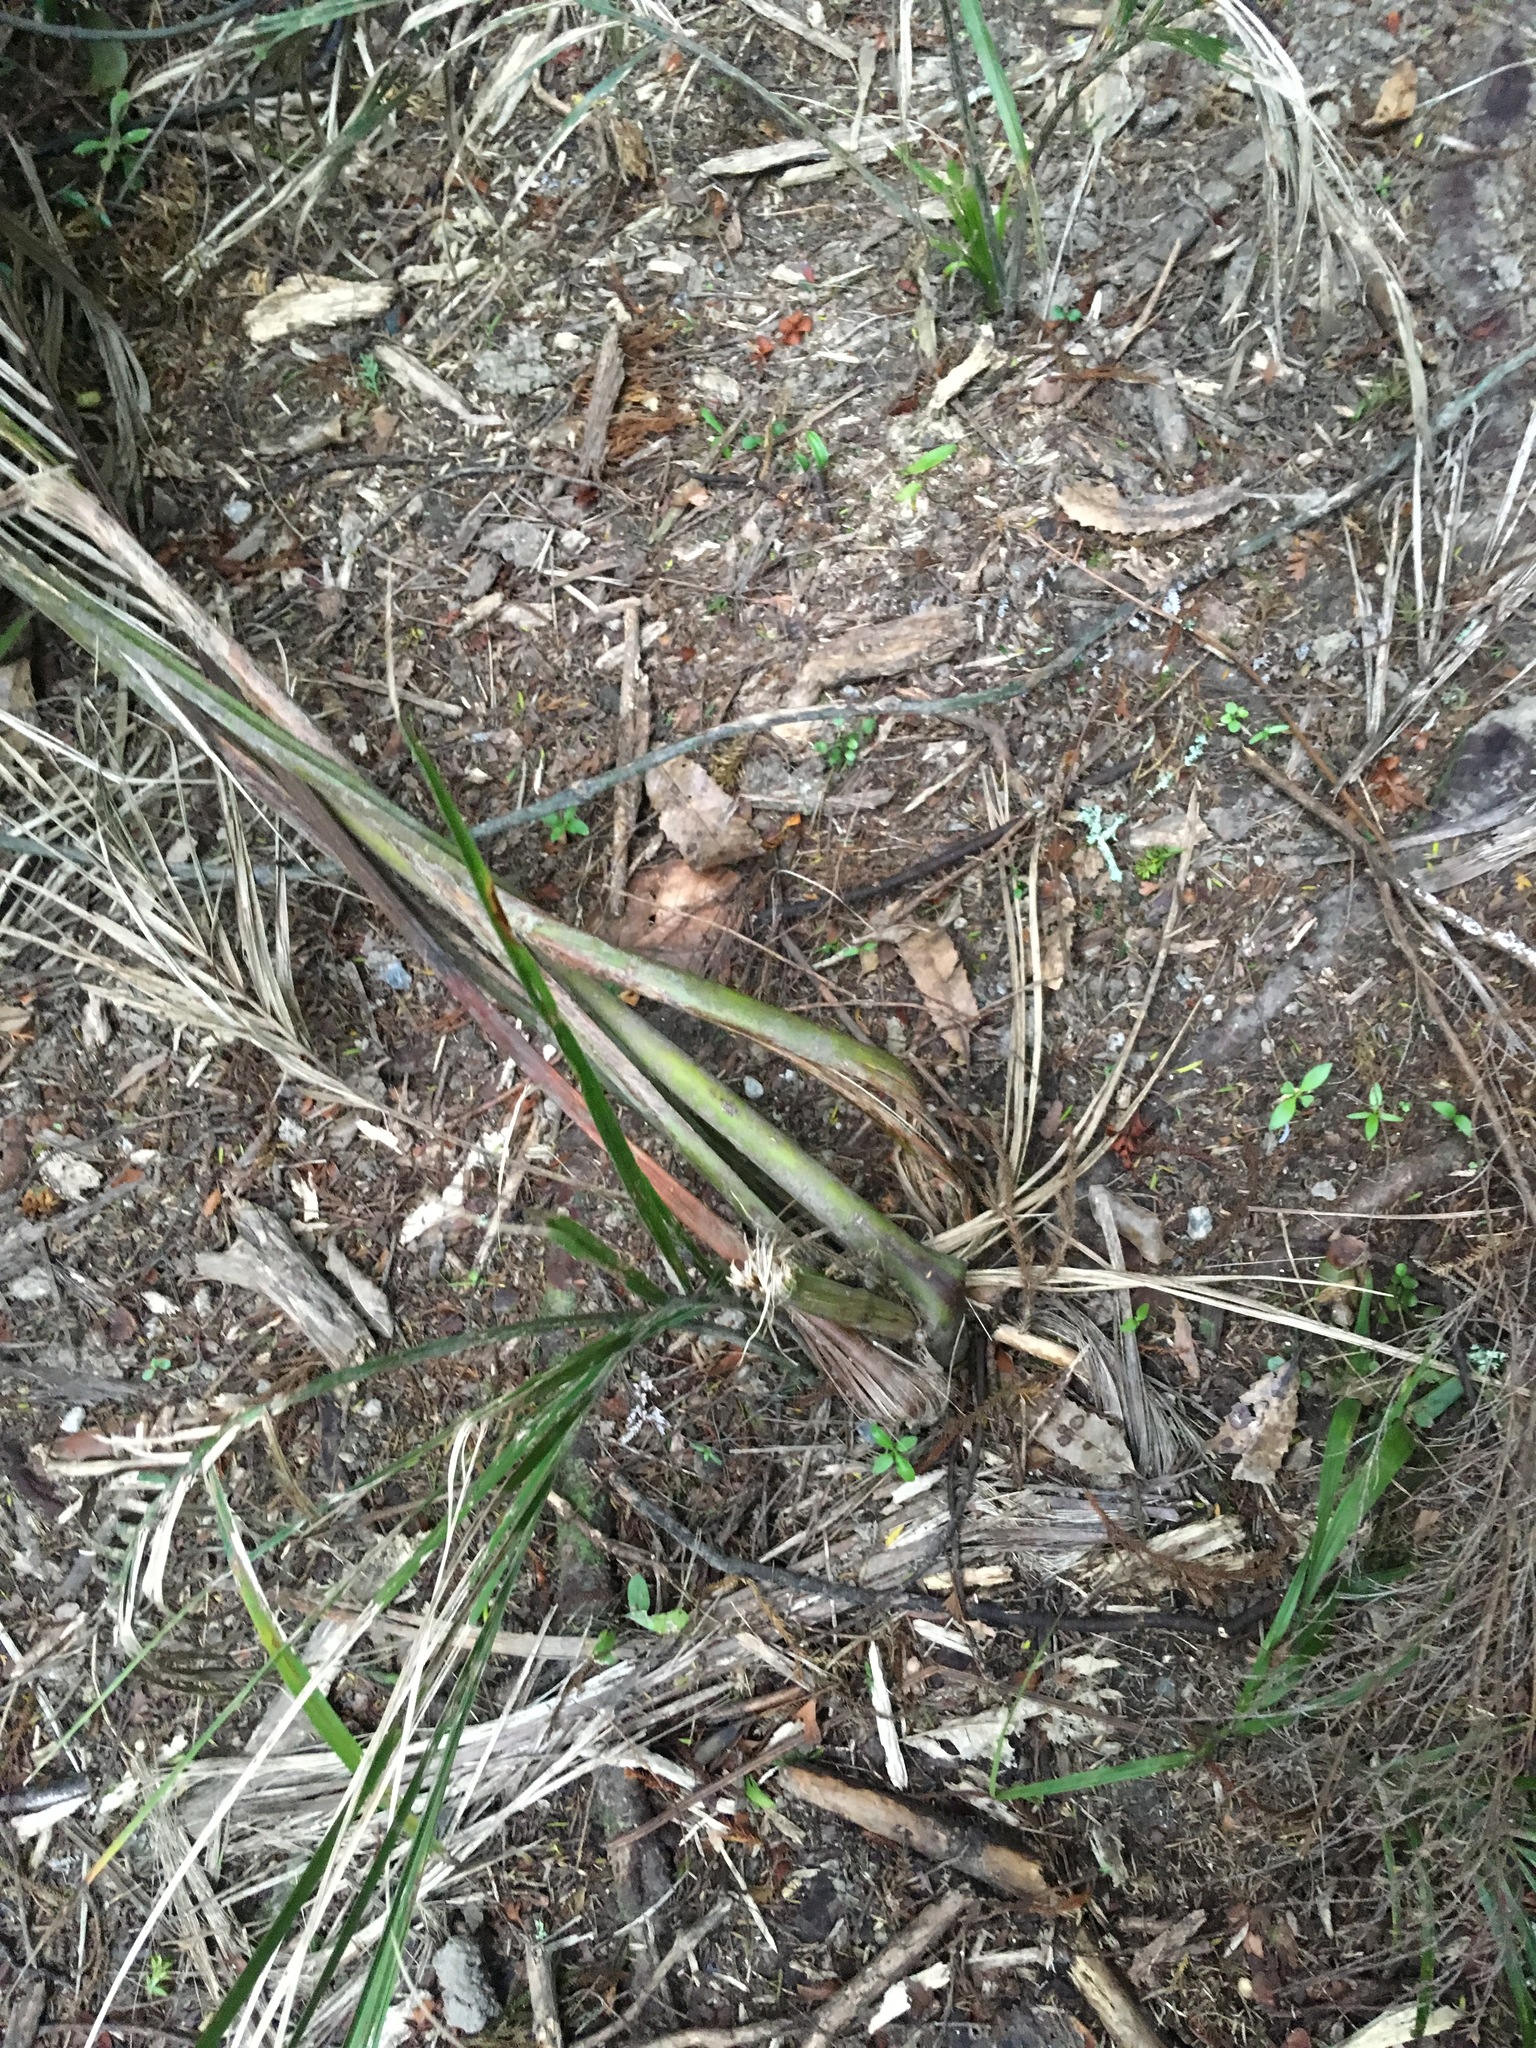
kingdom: Plantae
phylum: Tracheophyta
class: Liliopsida
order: Arecales
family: Arecaceae
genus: Rhopalostylis
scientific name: Rhopalostylis sapida
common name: Feather-duster palm
